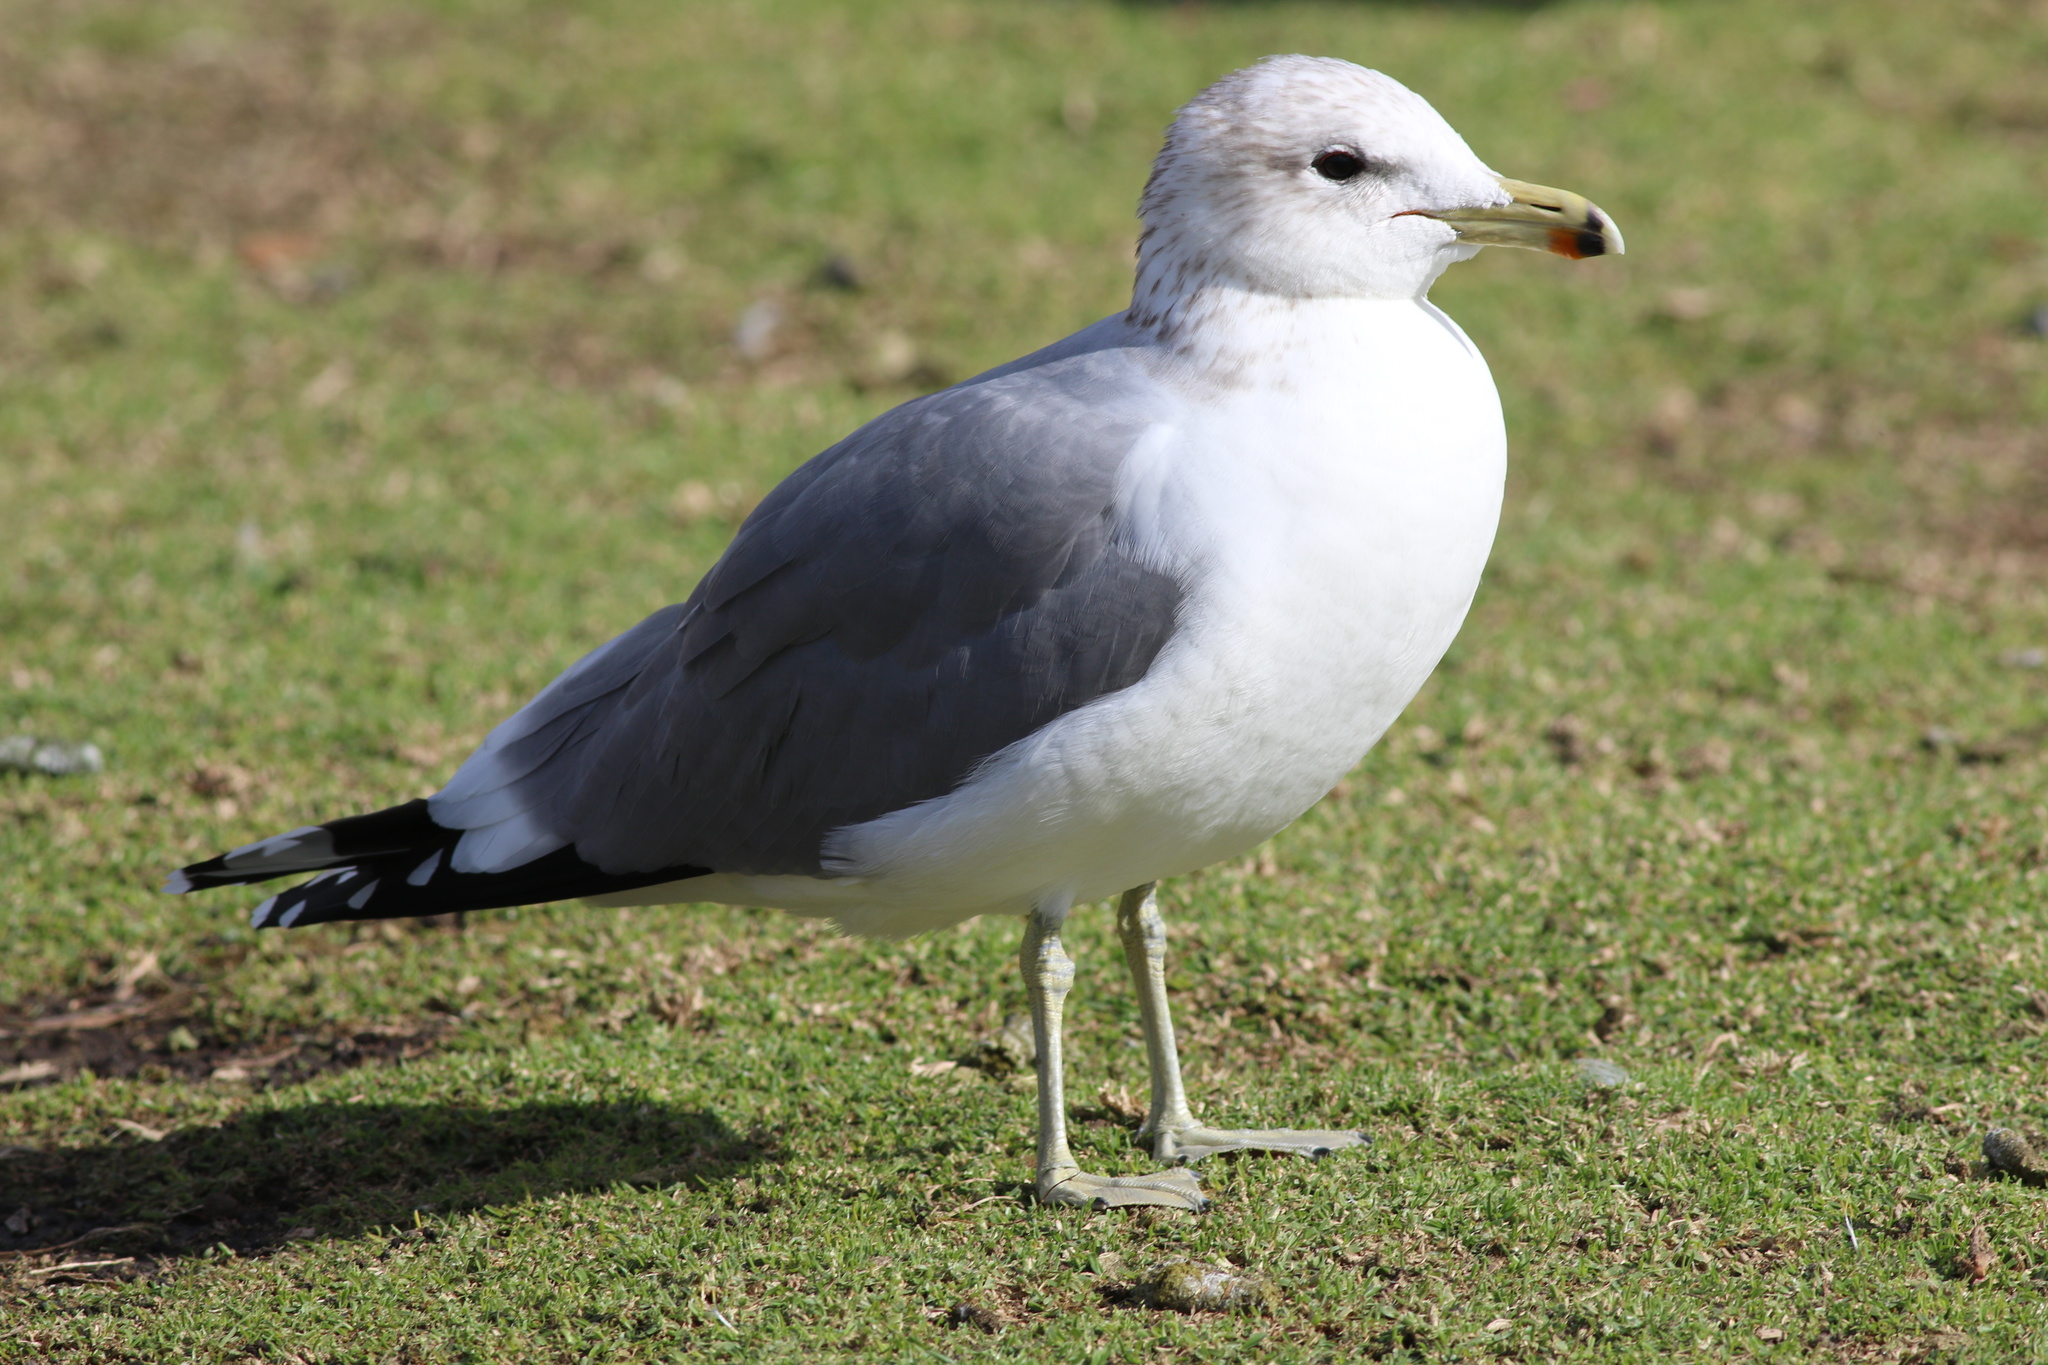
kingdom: Animalia
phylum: Chordata
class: Aves
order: Charadriiformes
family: Laridae
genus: Larus
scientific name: Larus californicus
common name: California gull
